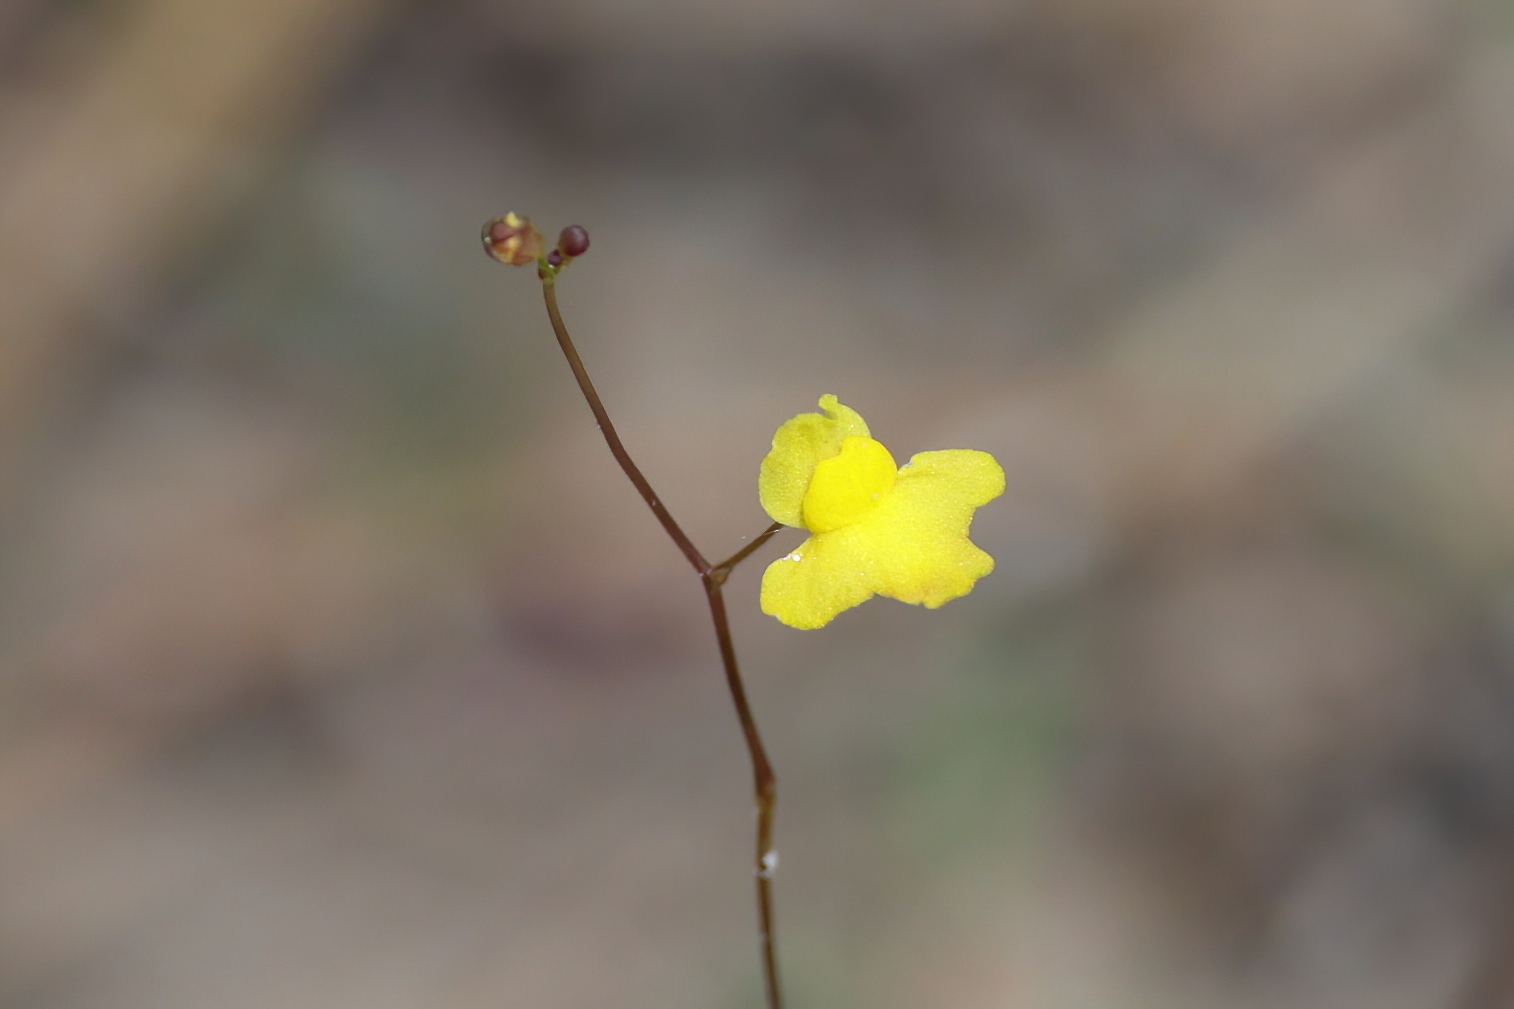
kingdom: Plantae
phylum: Tracheophyta
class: Magnoliopsida
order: Lamiales
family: Lentibulariaceae
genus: Utricularia
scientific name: Utricularia subulata
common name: Tiny bladderwort
